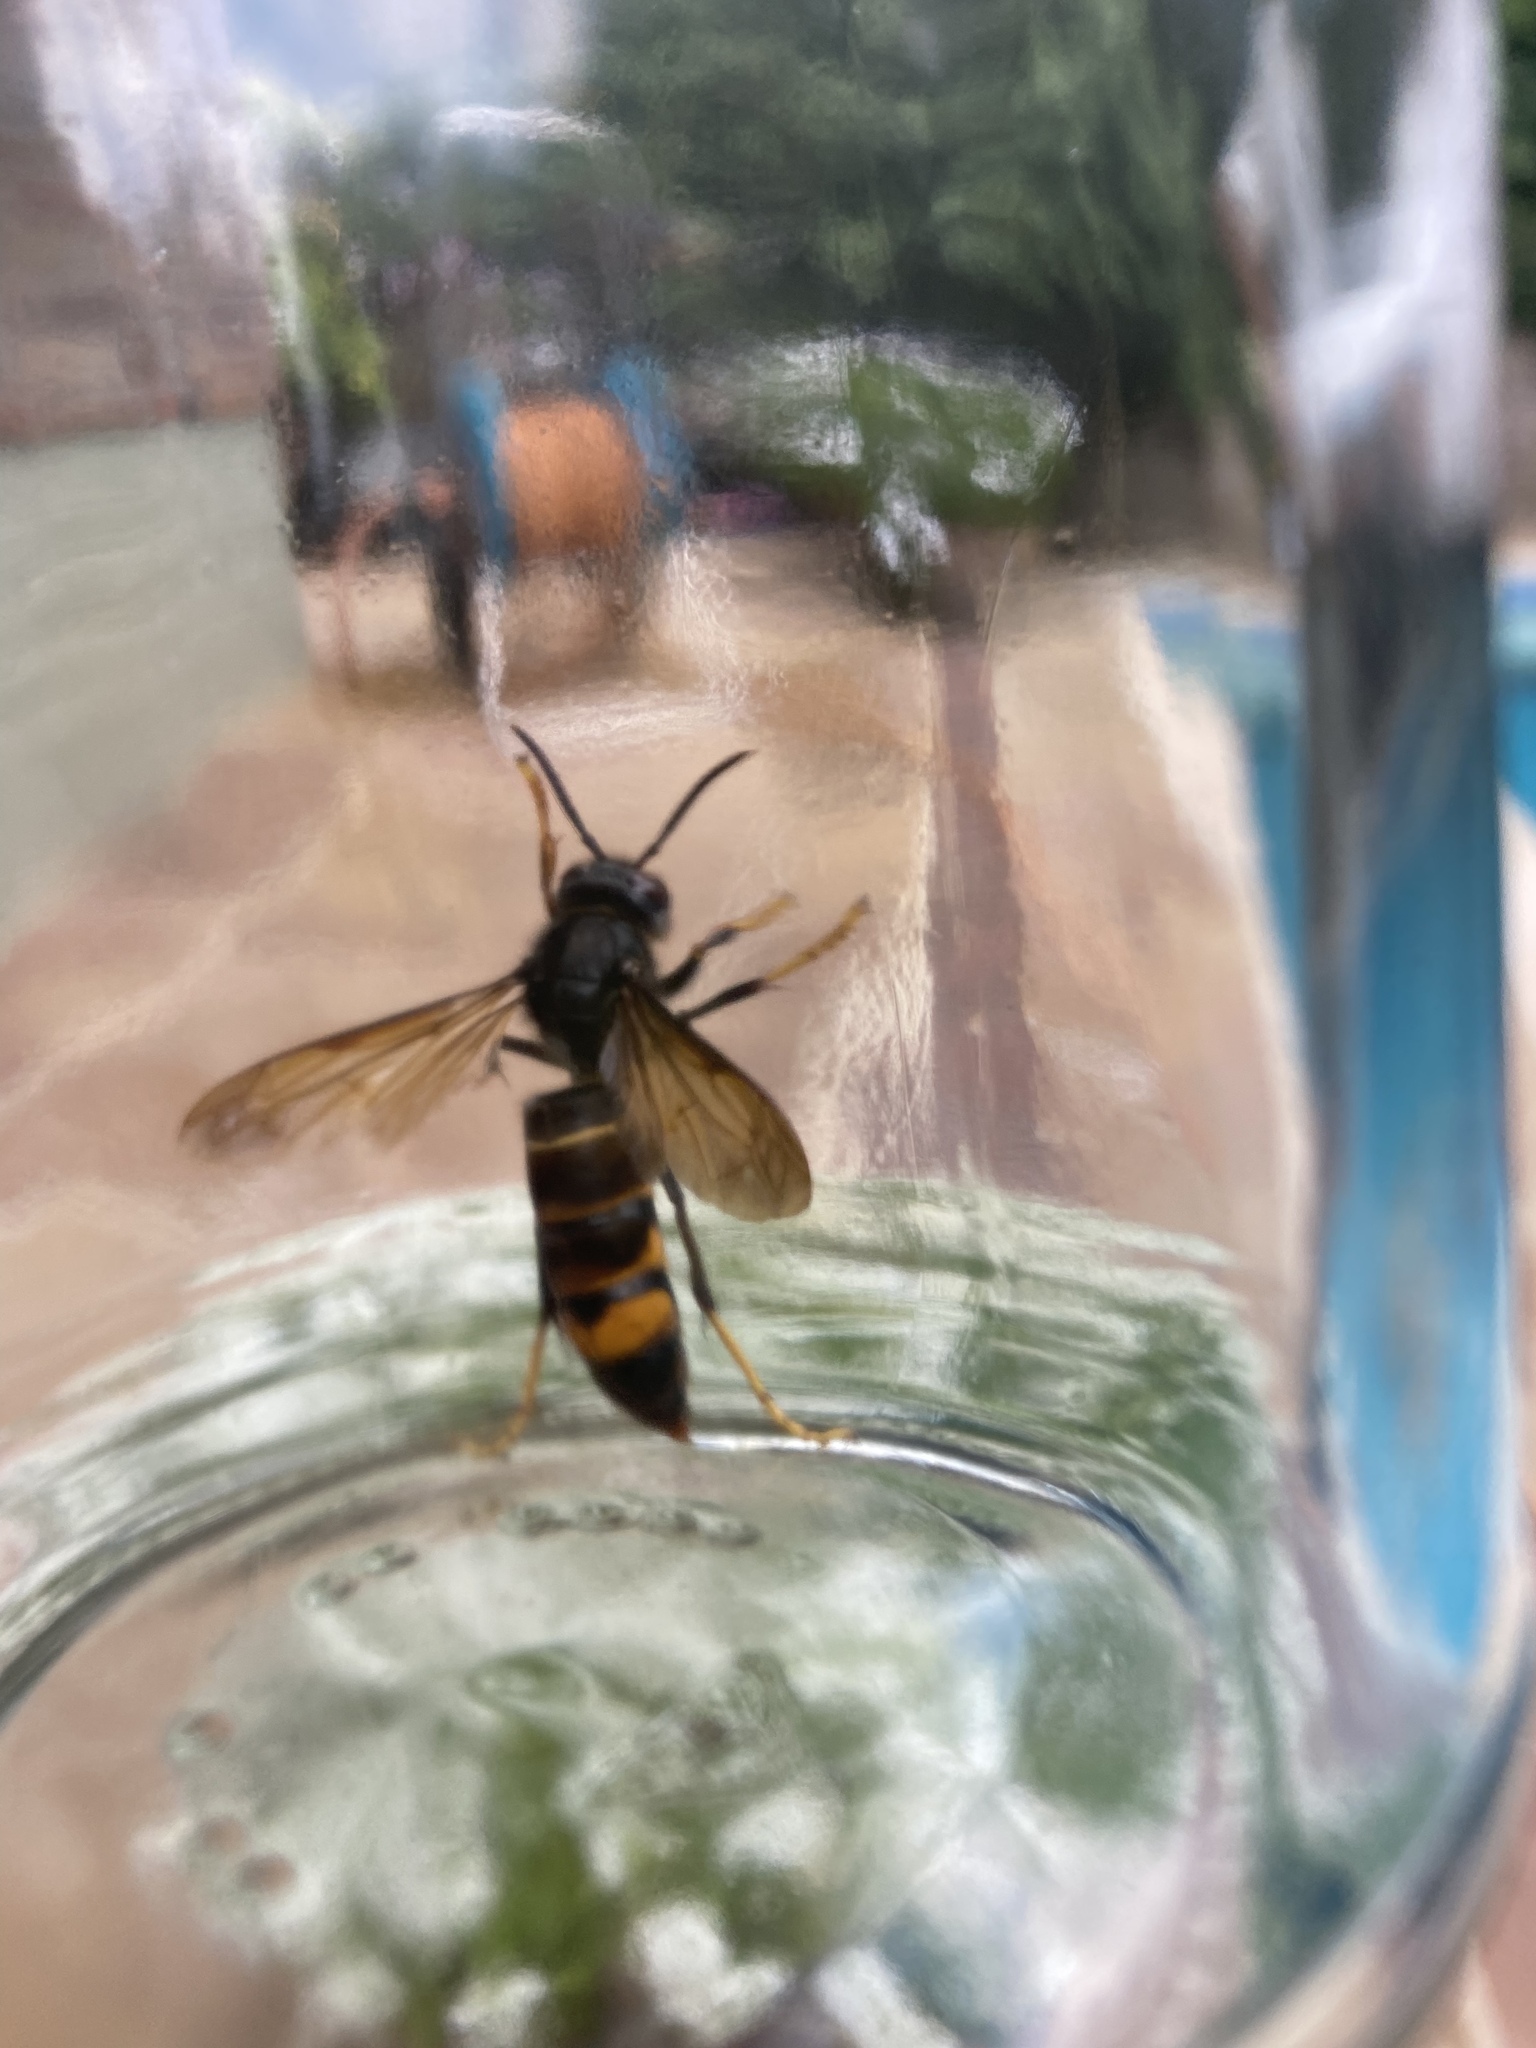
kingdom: Animalia
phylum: Arthropoda
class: Insecta
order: Hymenoptera
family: Vespidae
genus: Vespa
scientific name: Vespa velutina
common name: Asian hornet
